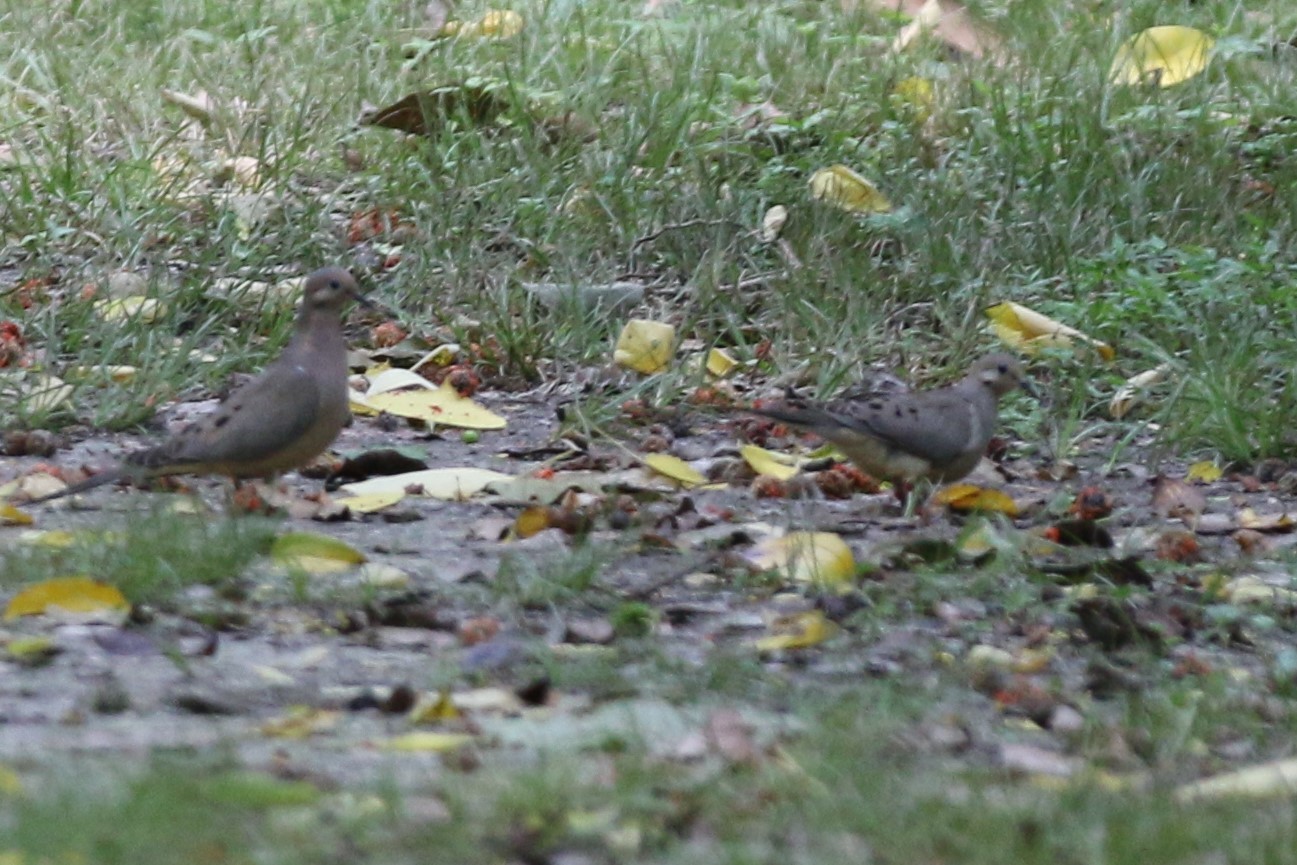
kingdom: Animalia
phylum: Chordata
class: Aves
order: Columbiformes
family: Columbidae
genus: Zenaida
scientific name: Zenaida macroura
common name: Mourning dove
